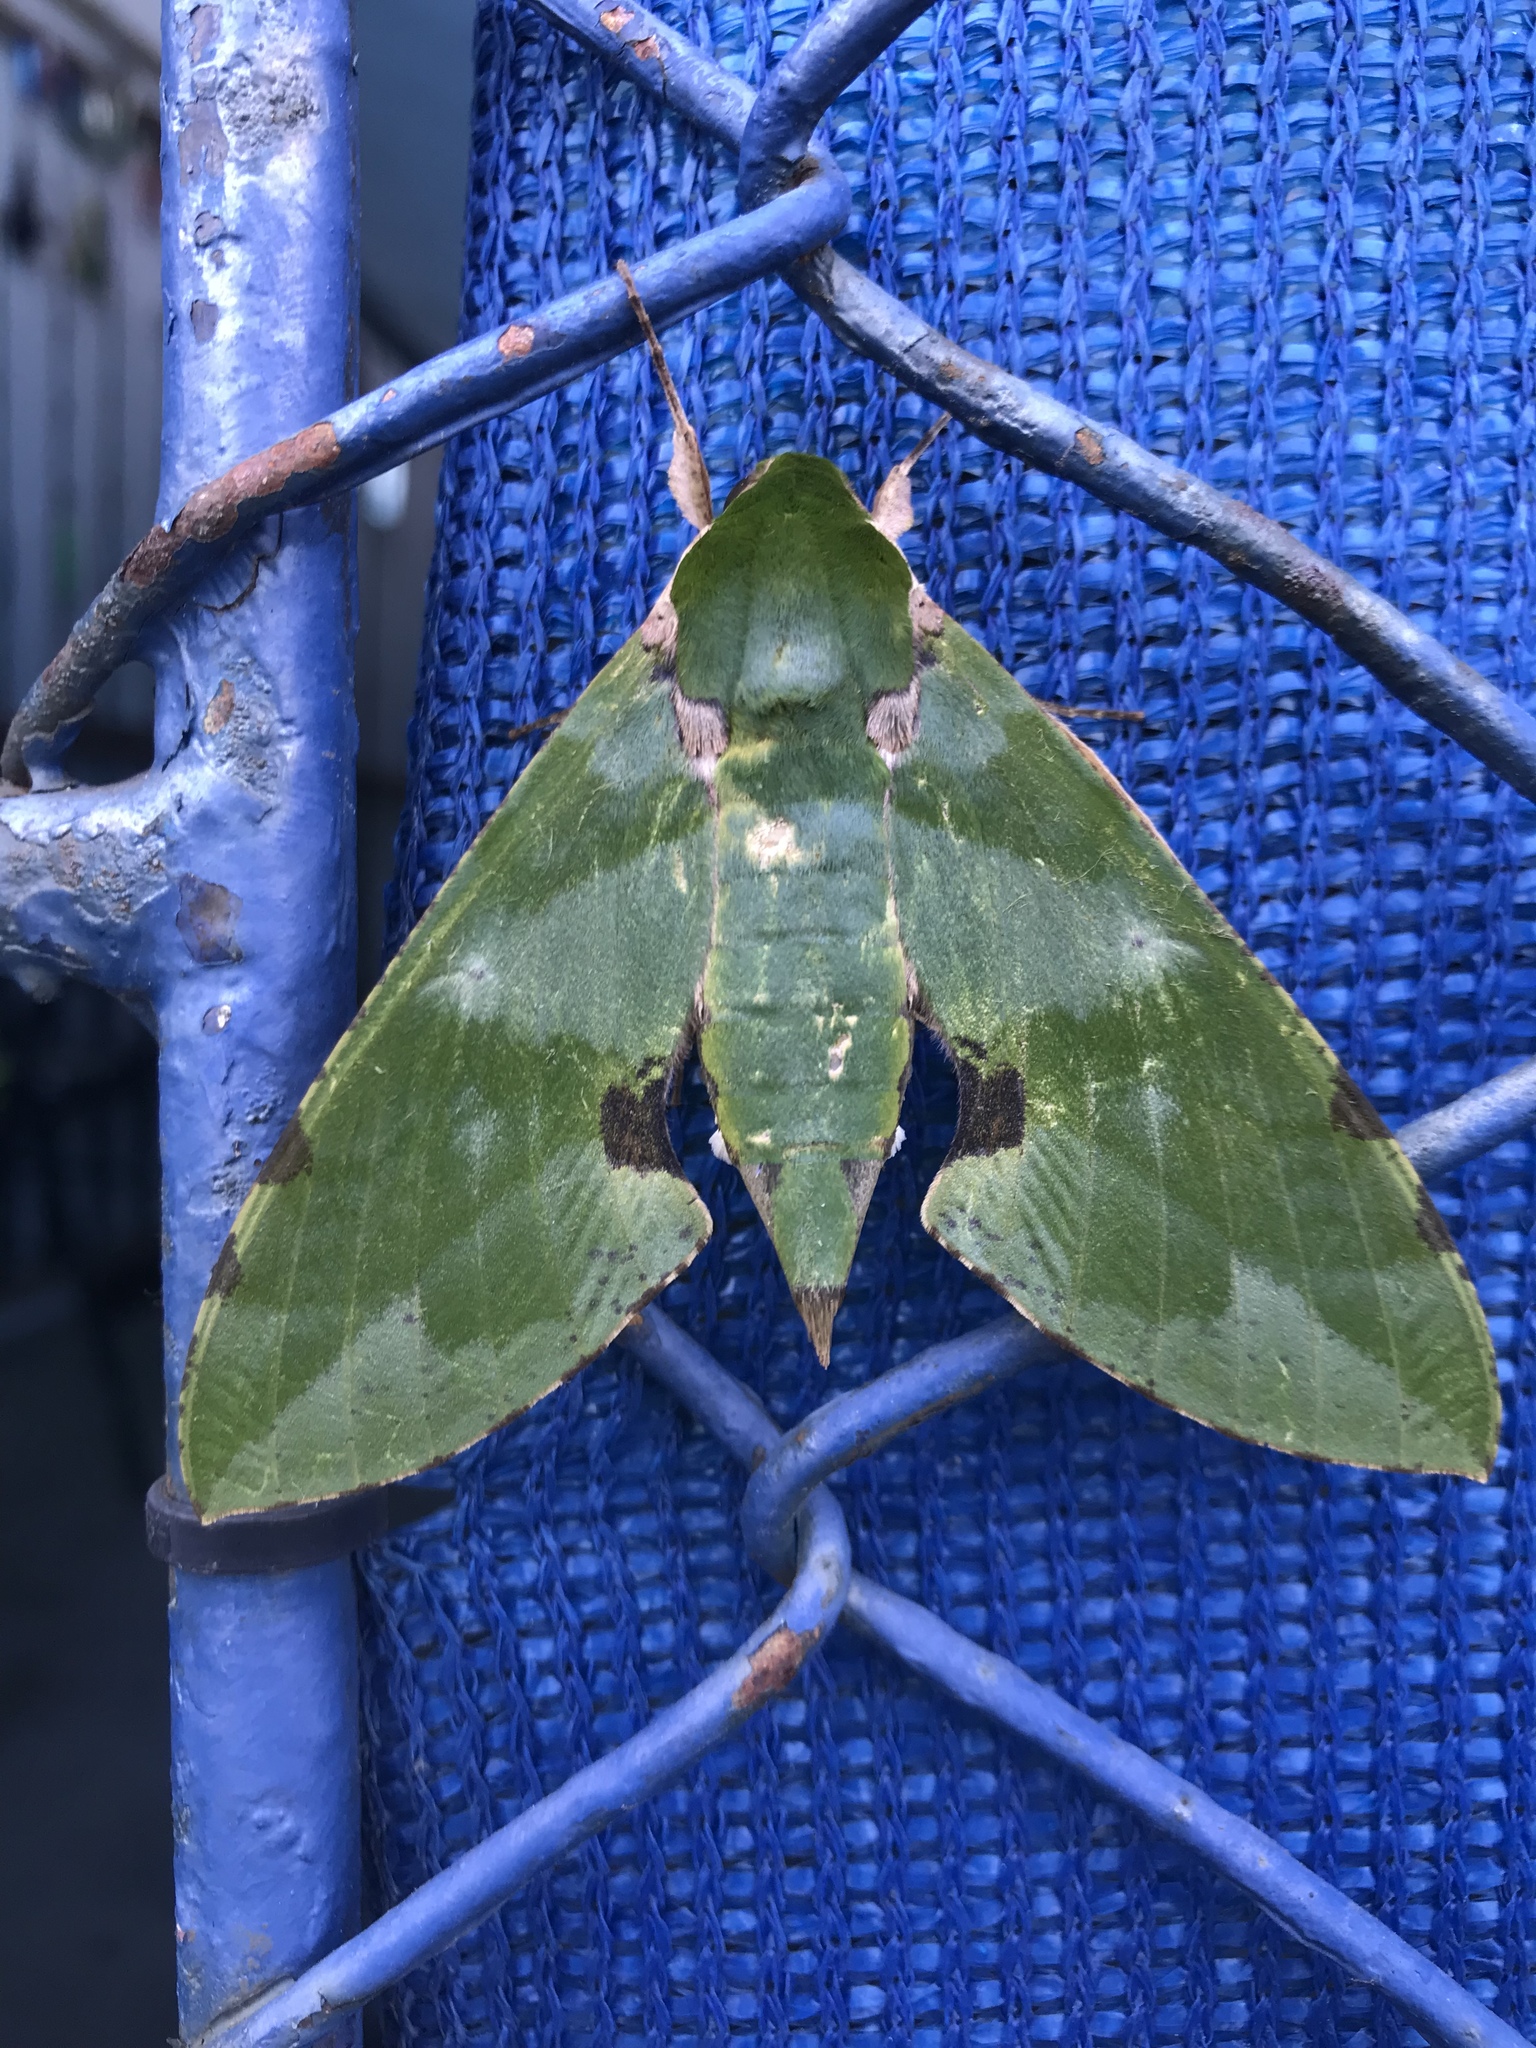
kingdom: Animalia
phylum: Arthropoda
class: Insecta
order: Lepidoptera
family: Sphingidae
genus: Euchloron
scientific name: Euchloron megaera
